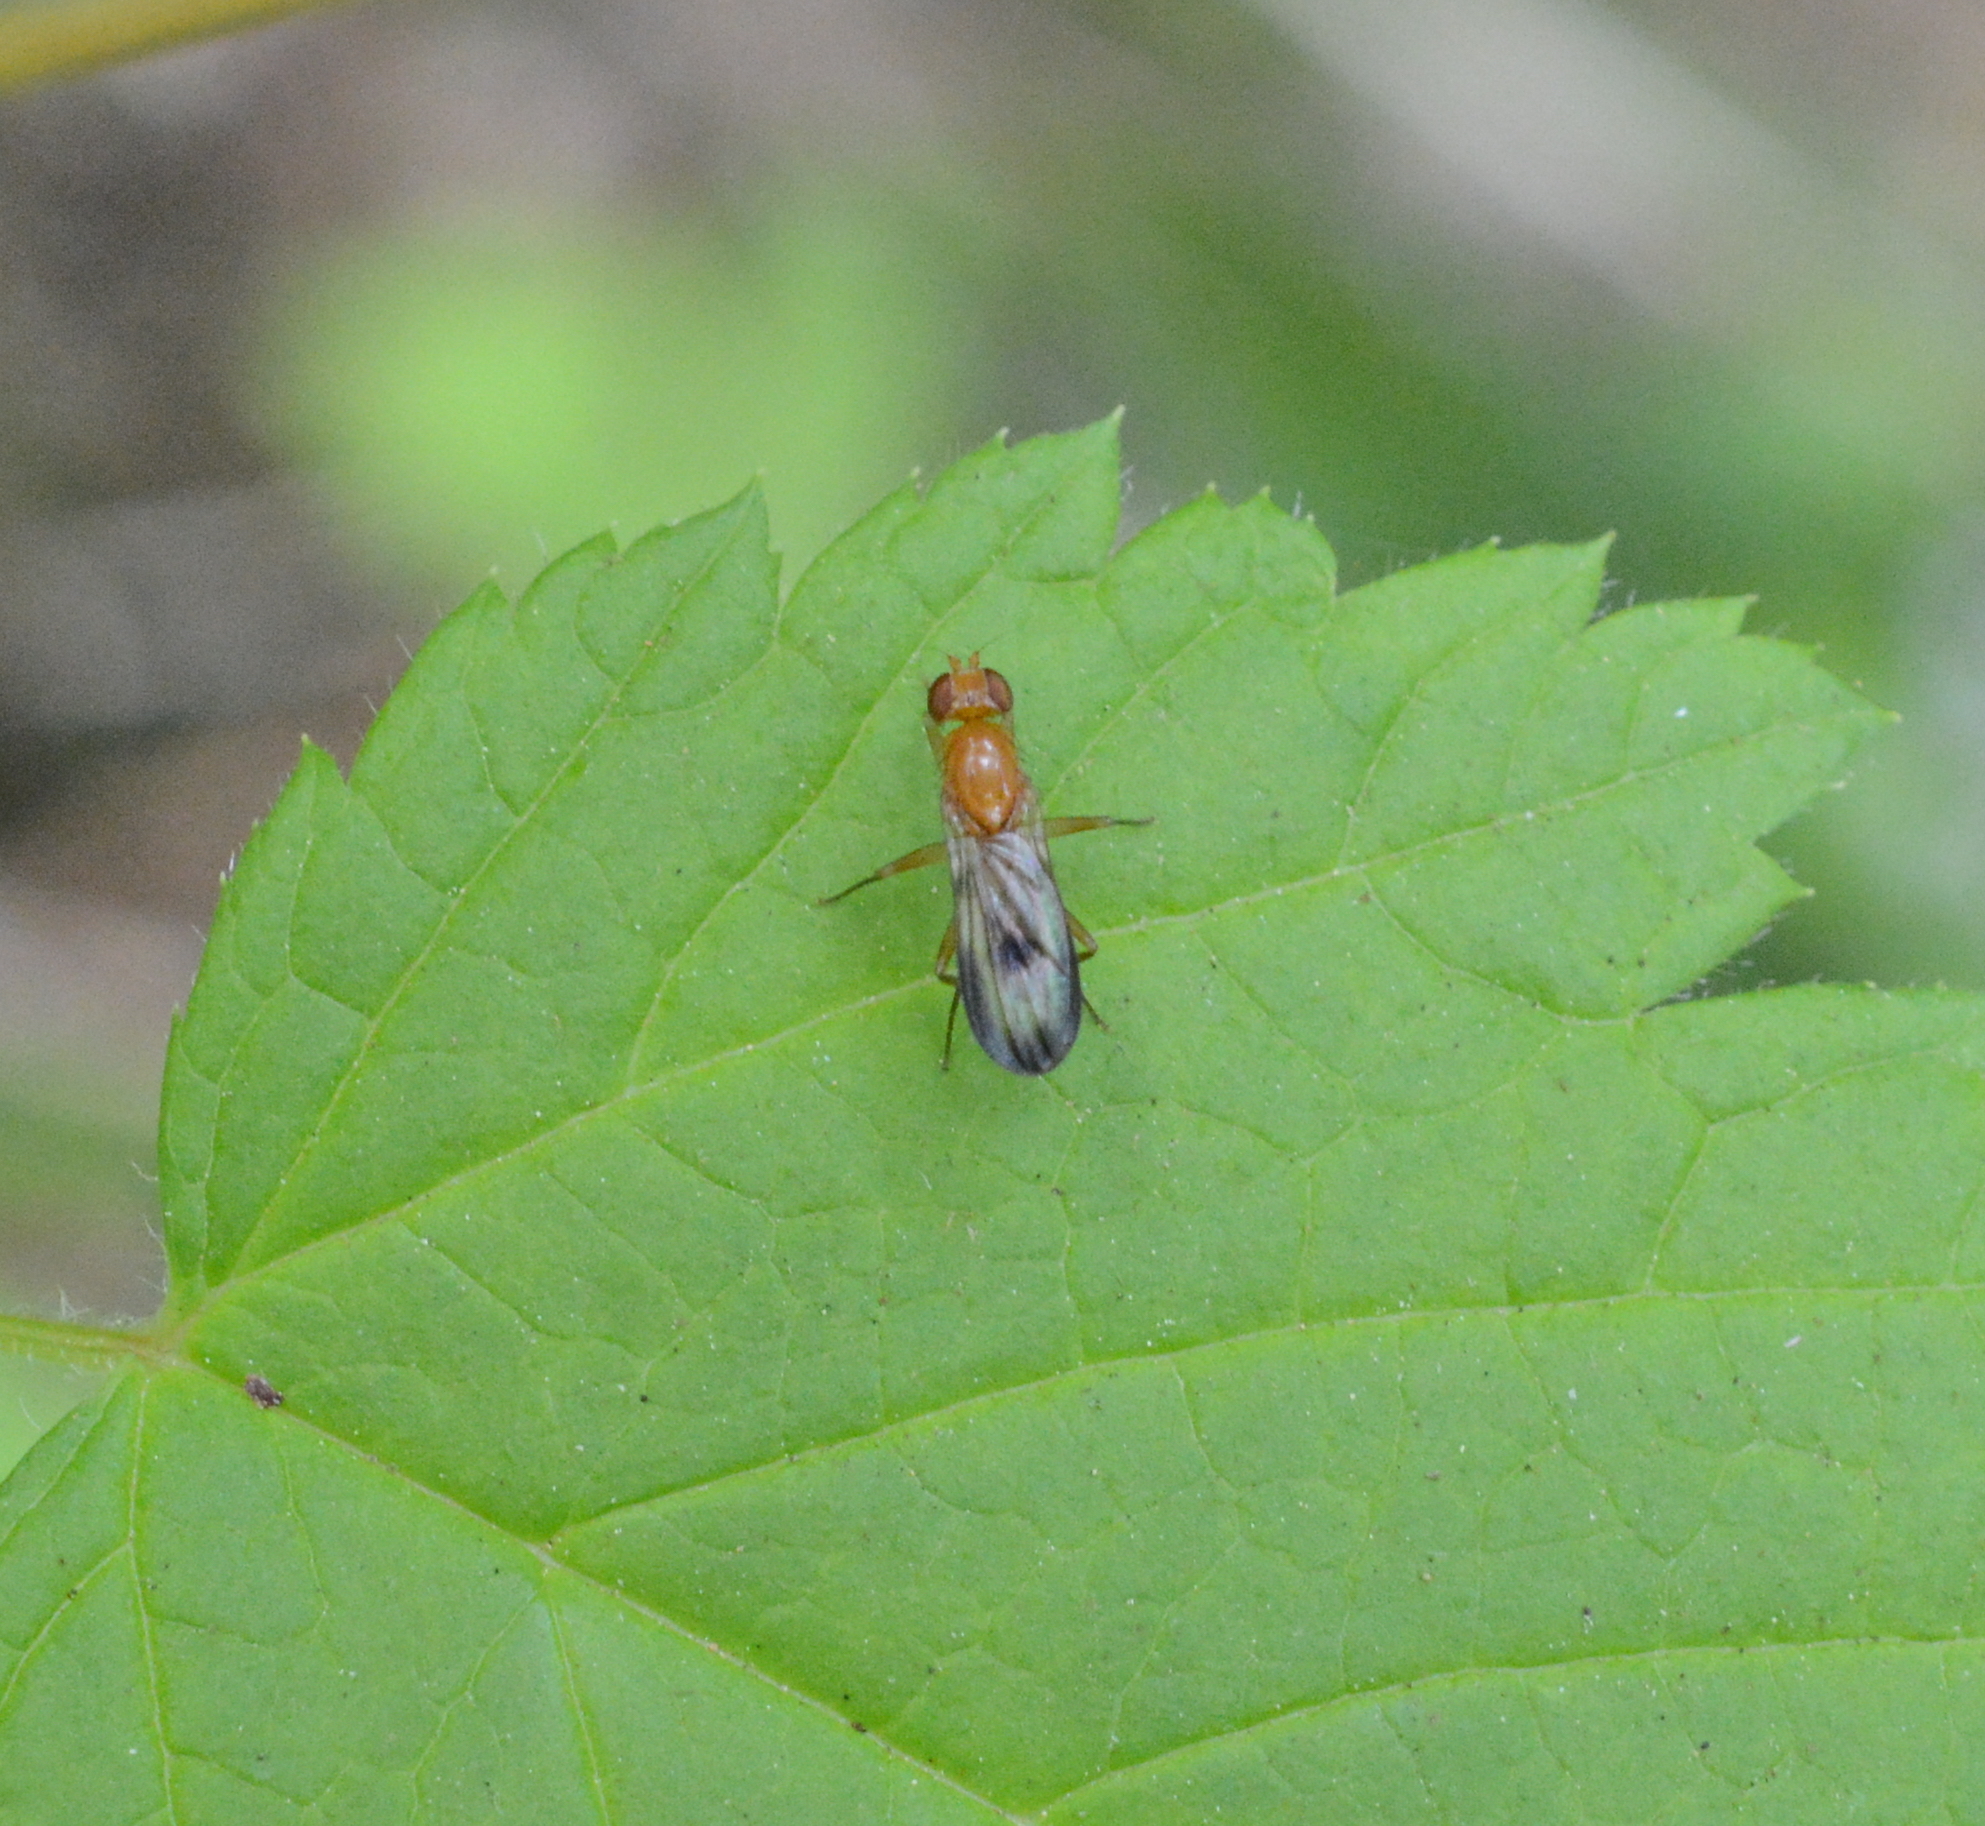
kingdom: Animalia
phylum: Arthropoda
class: Insecta
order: Diptera
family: Clusiidae
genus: Clusia
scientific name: Clusia occidentalis
